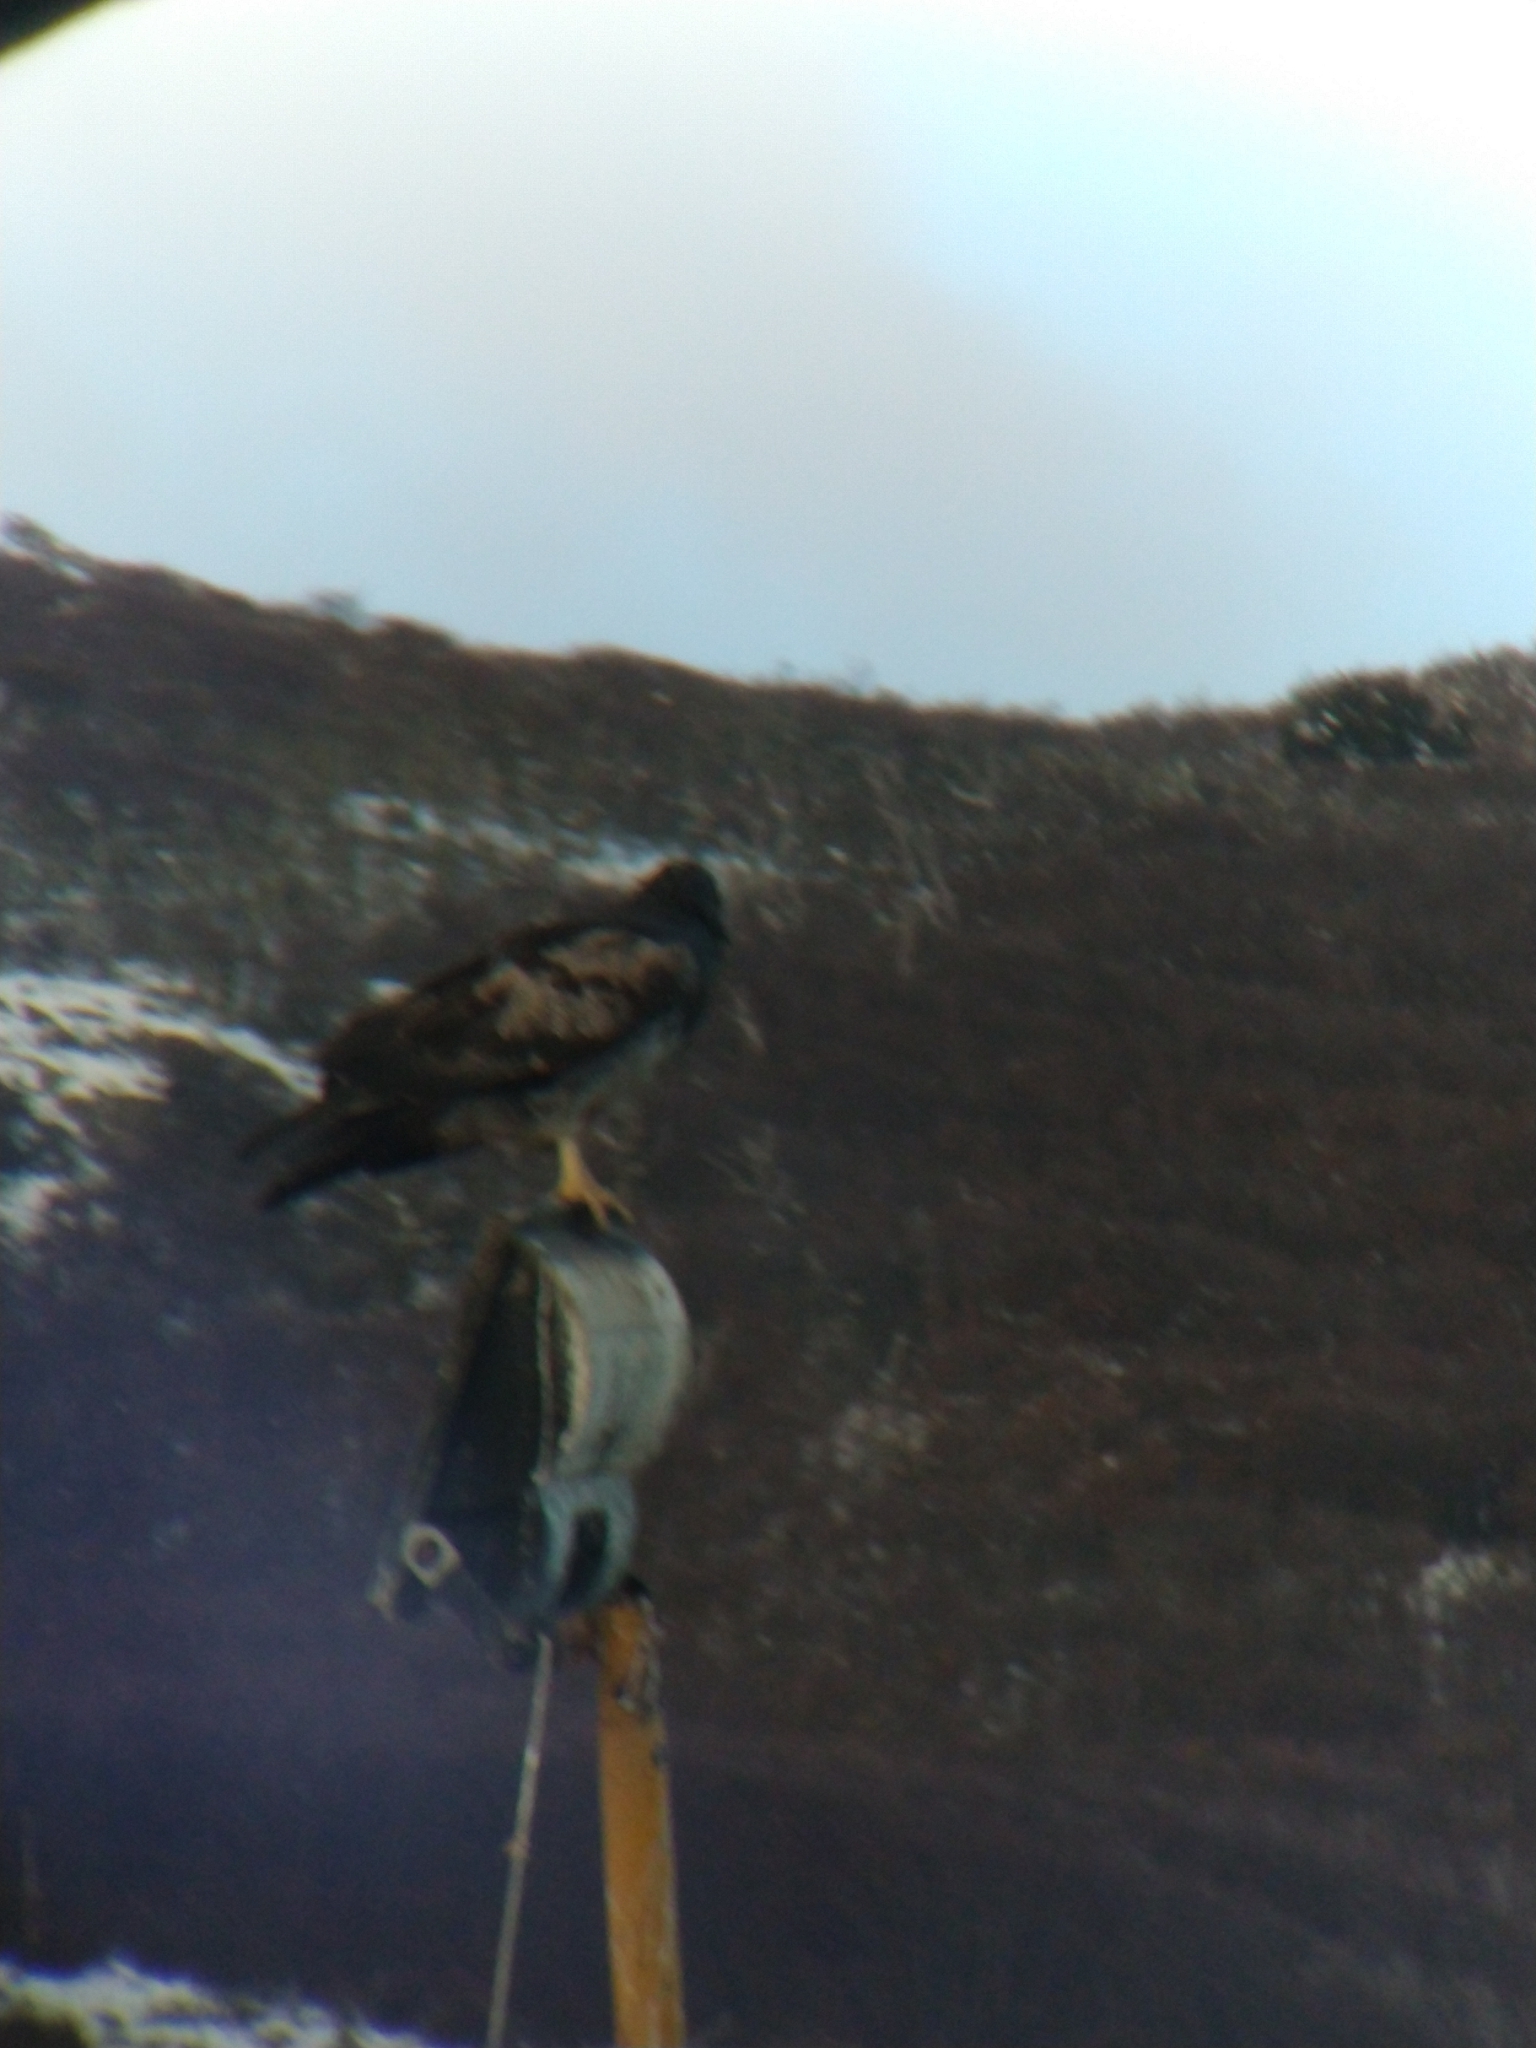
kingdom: Animalia
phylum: Chordata
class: Aves
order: Accipitriformes
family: Accipitridae
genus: Geranoaetus
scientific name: Geranoaetus melanoleucus
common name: Black-chested buzzard-eagle
